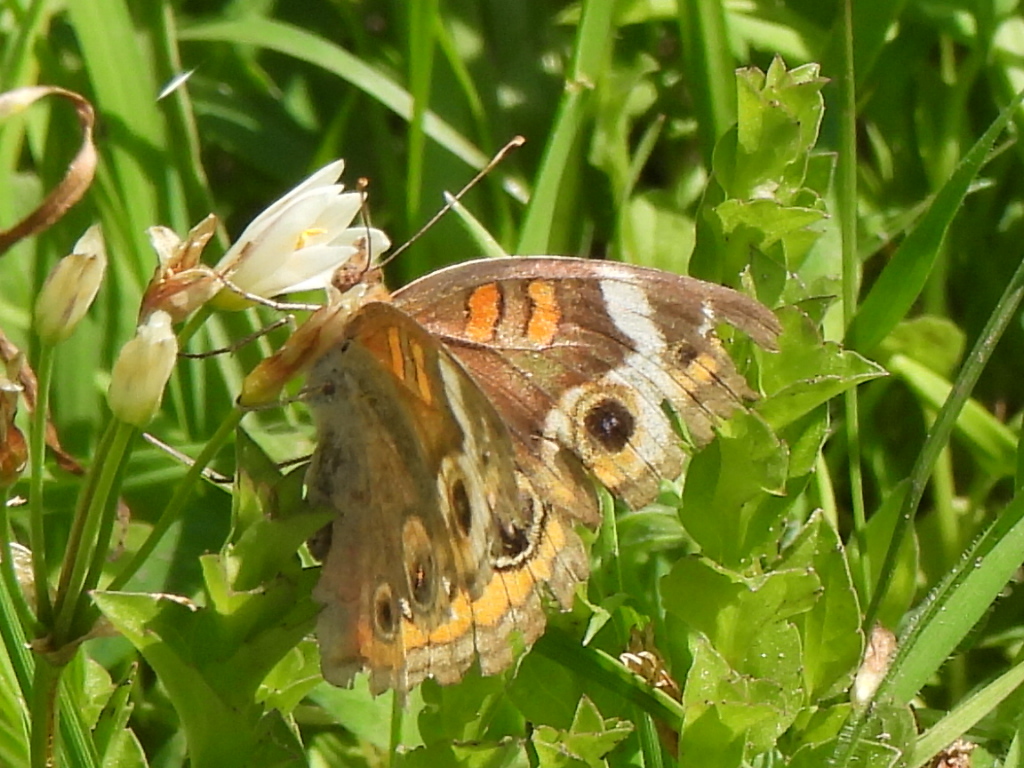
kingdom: Animalia
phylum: Arthropoda
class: Insecta
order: Lepidoptera
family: Nymphalidae
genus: Junonia
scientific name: Junonia coenia
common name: Common buckeye
